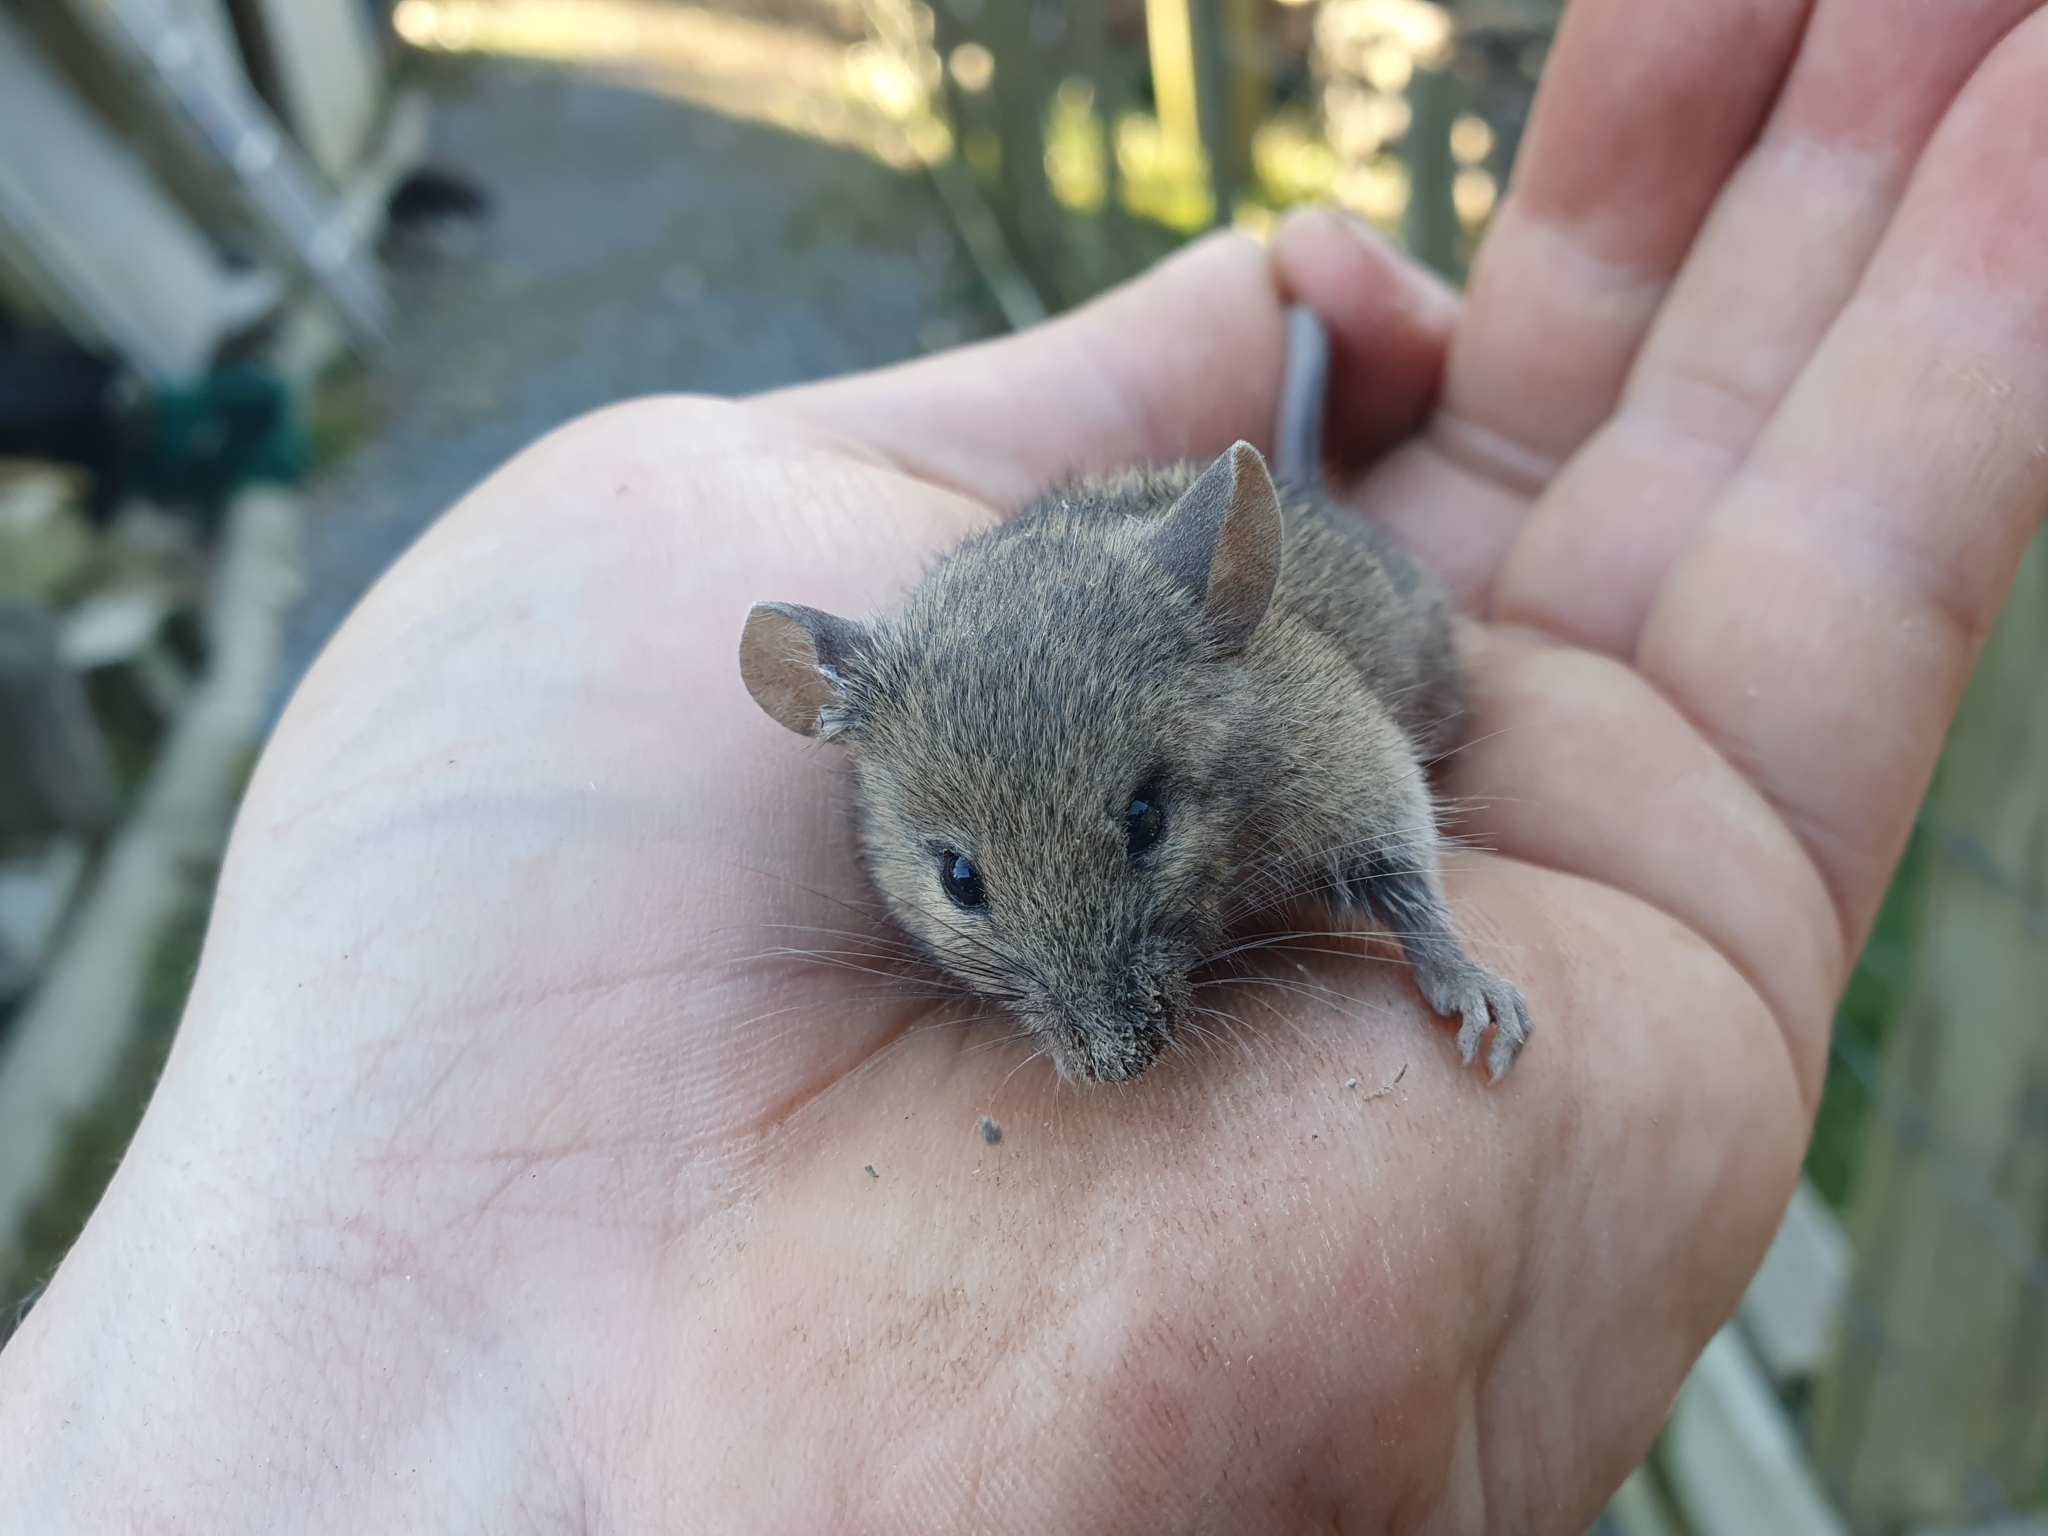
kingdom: Animalia
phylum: Chordata
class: Mammalia
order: Rodentia
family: Muridae
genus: Mus
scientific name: Mus musculus
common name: House mouse
